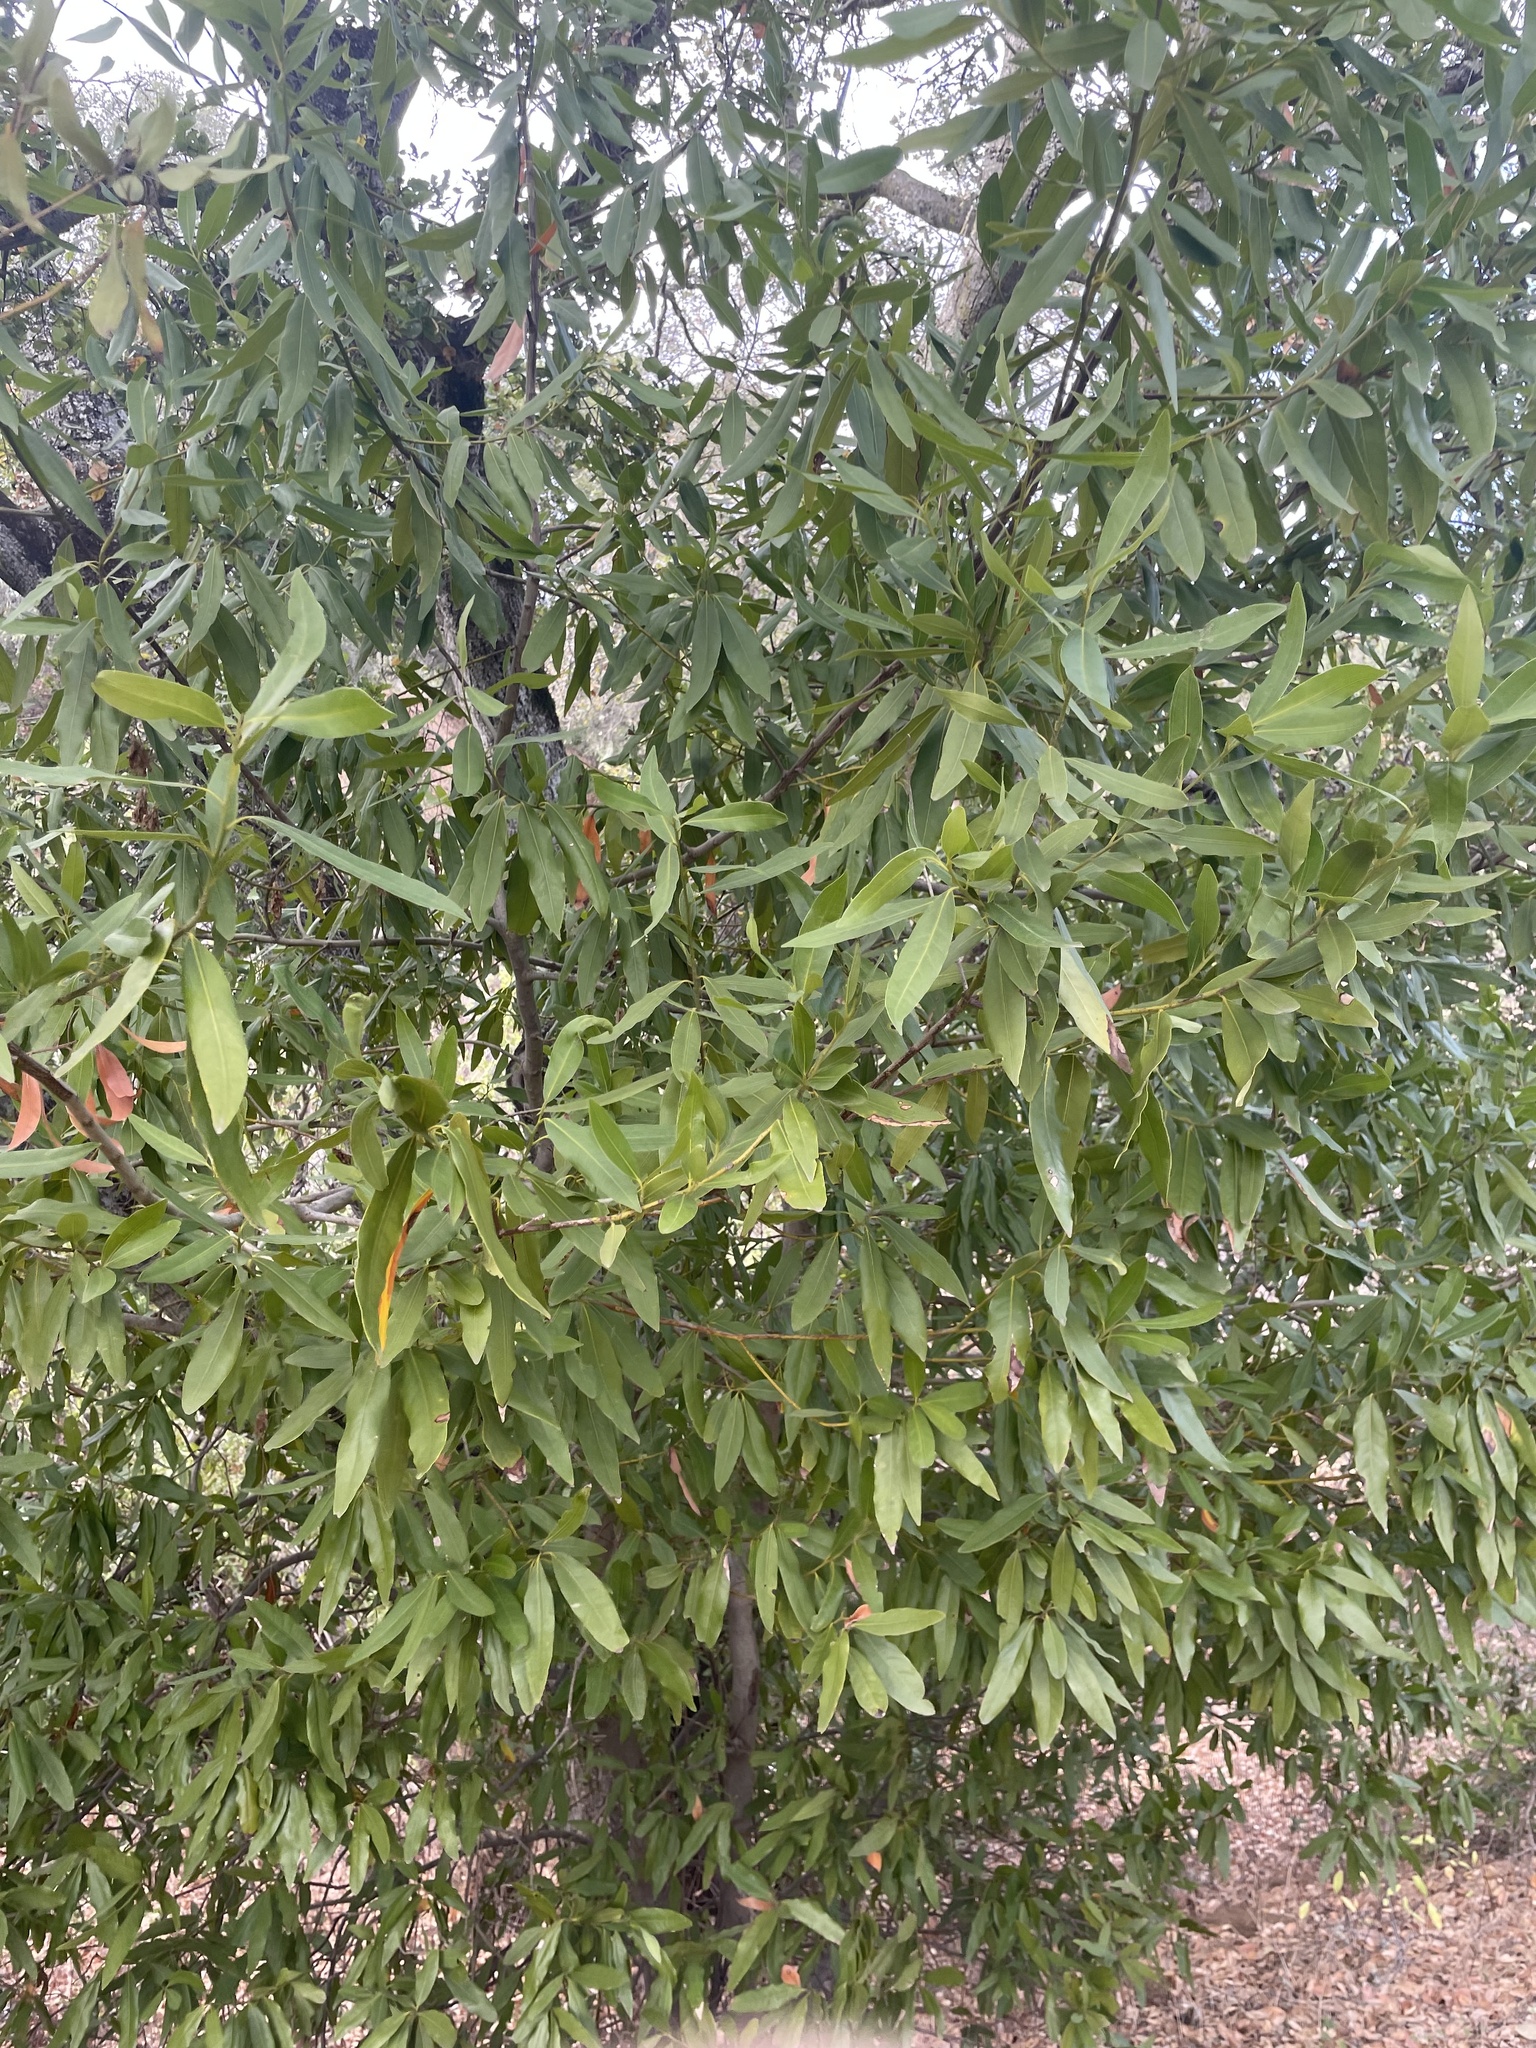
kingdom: Plantae
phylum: Tracheophyta
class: Magnoliopsida
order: Laurales
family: Lauraceae
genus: Umbellularia
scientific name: Umbellularia californica
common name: California bay
